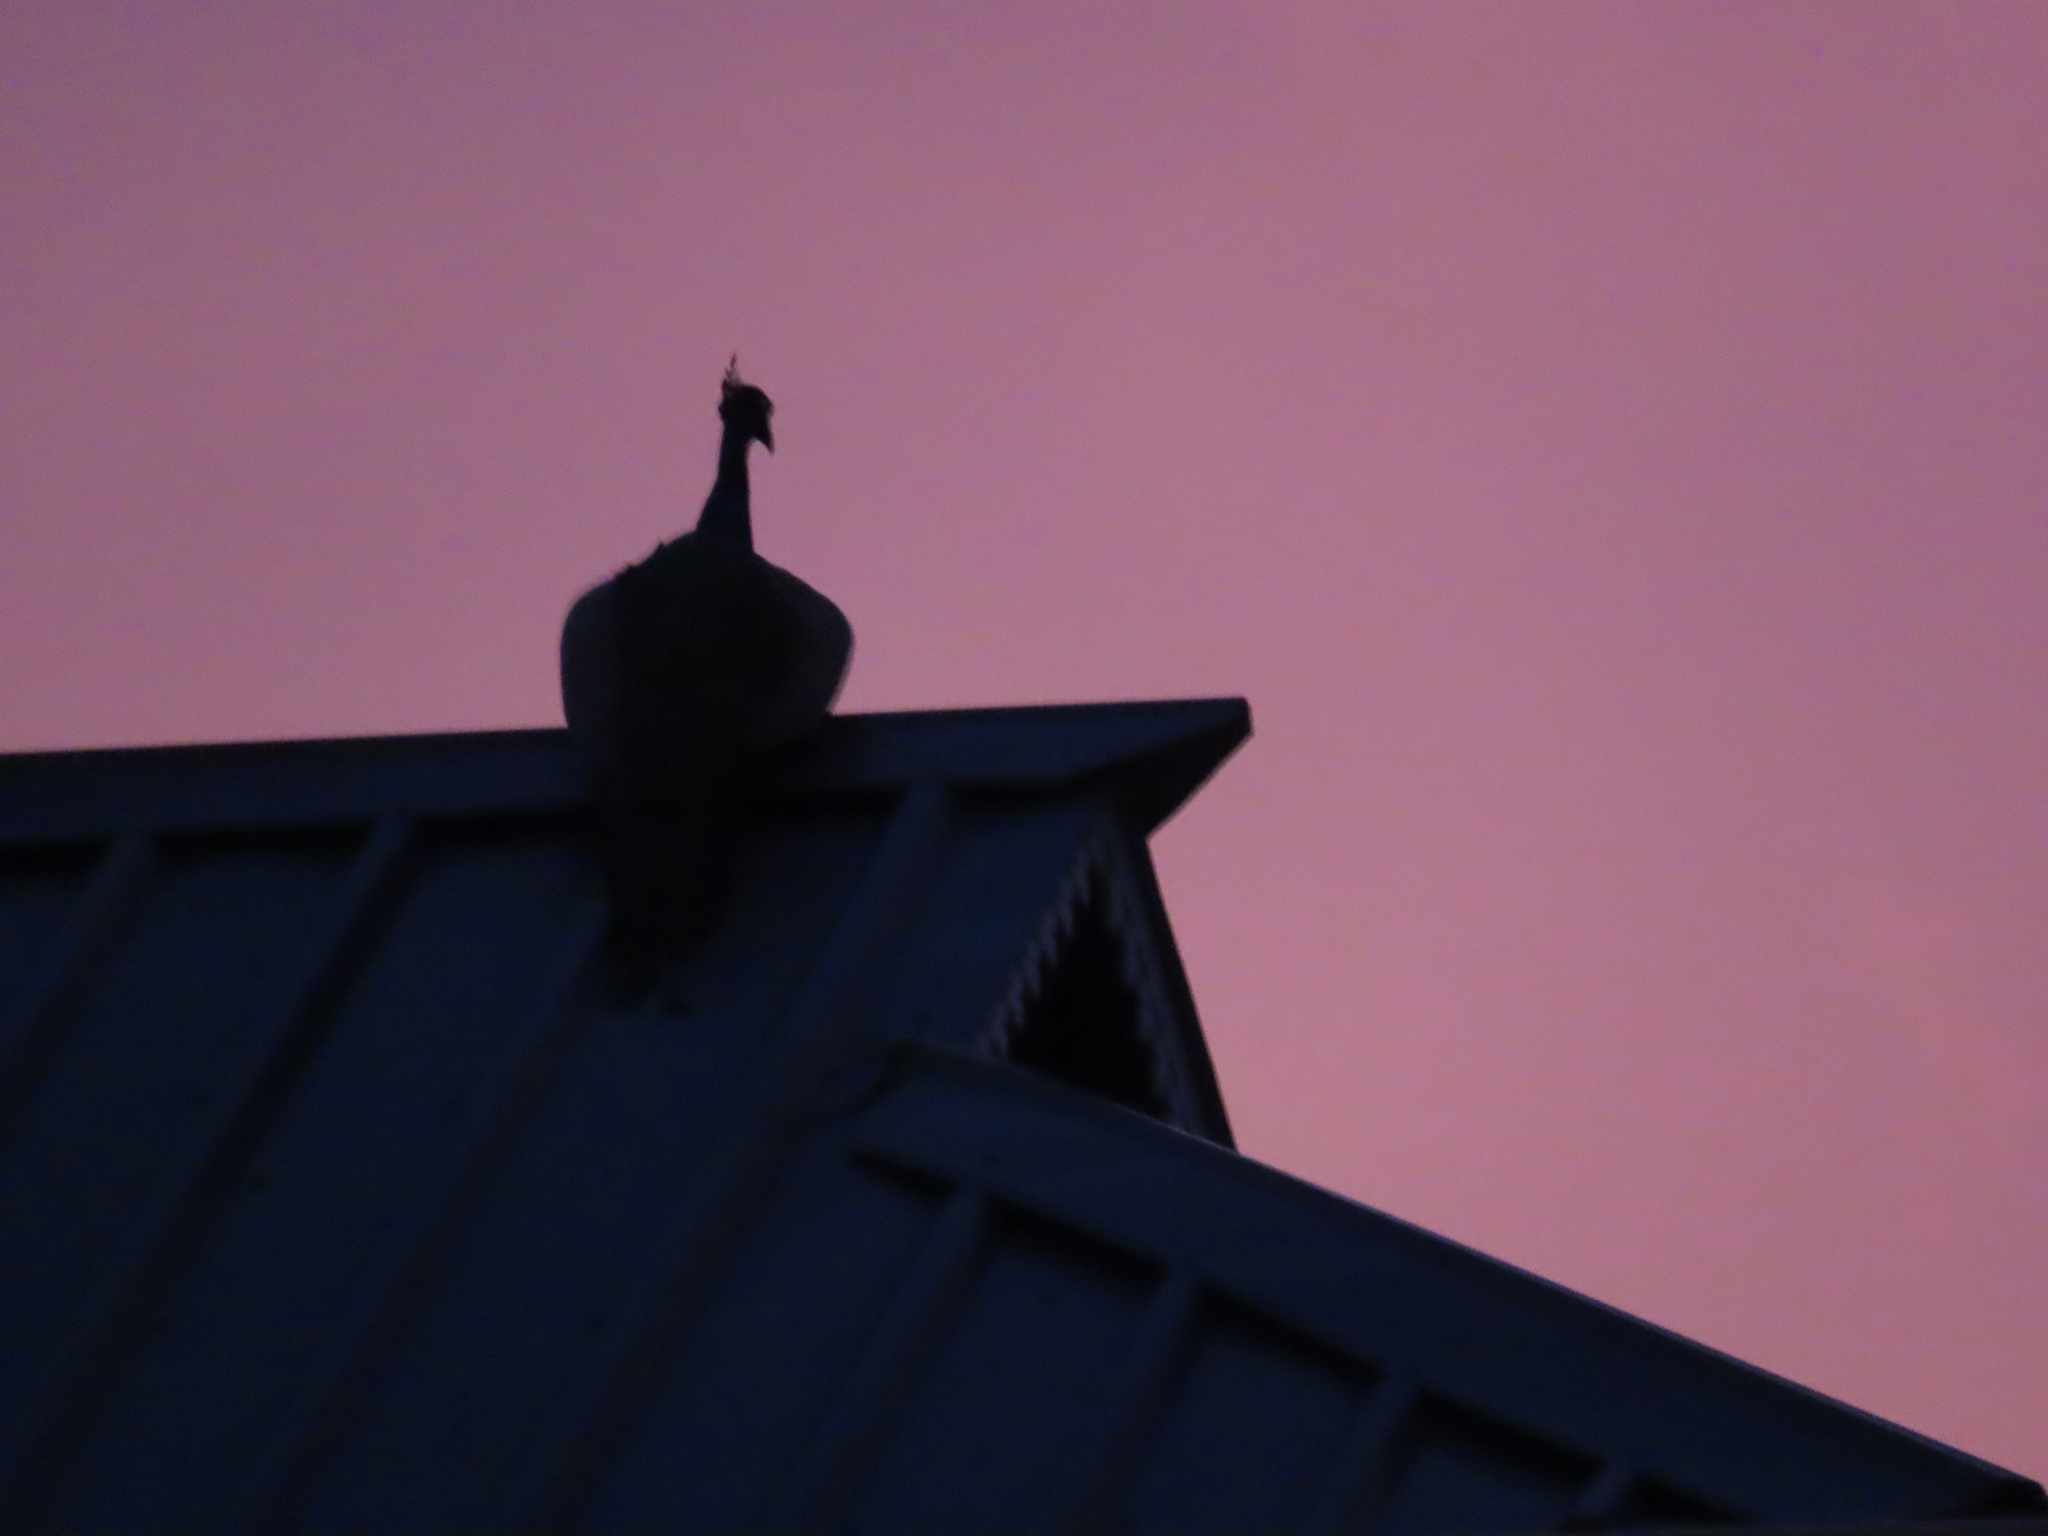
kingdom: Animalia
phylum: Chordata
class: Aves
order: Galliformes
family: Phasianidae
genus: Pavo
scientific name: Pavo cristatus
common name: Indian peafowl
